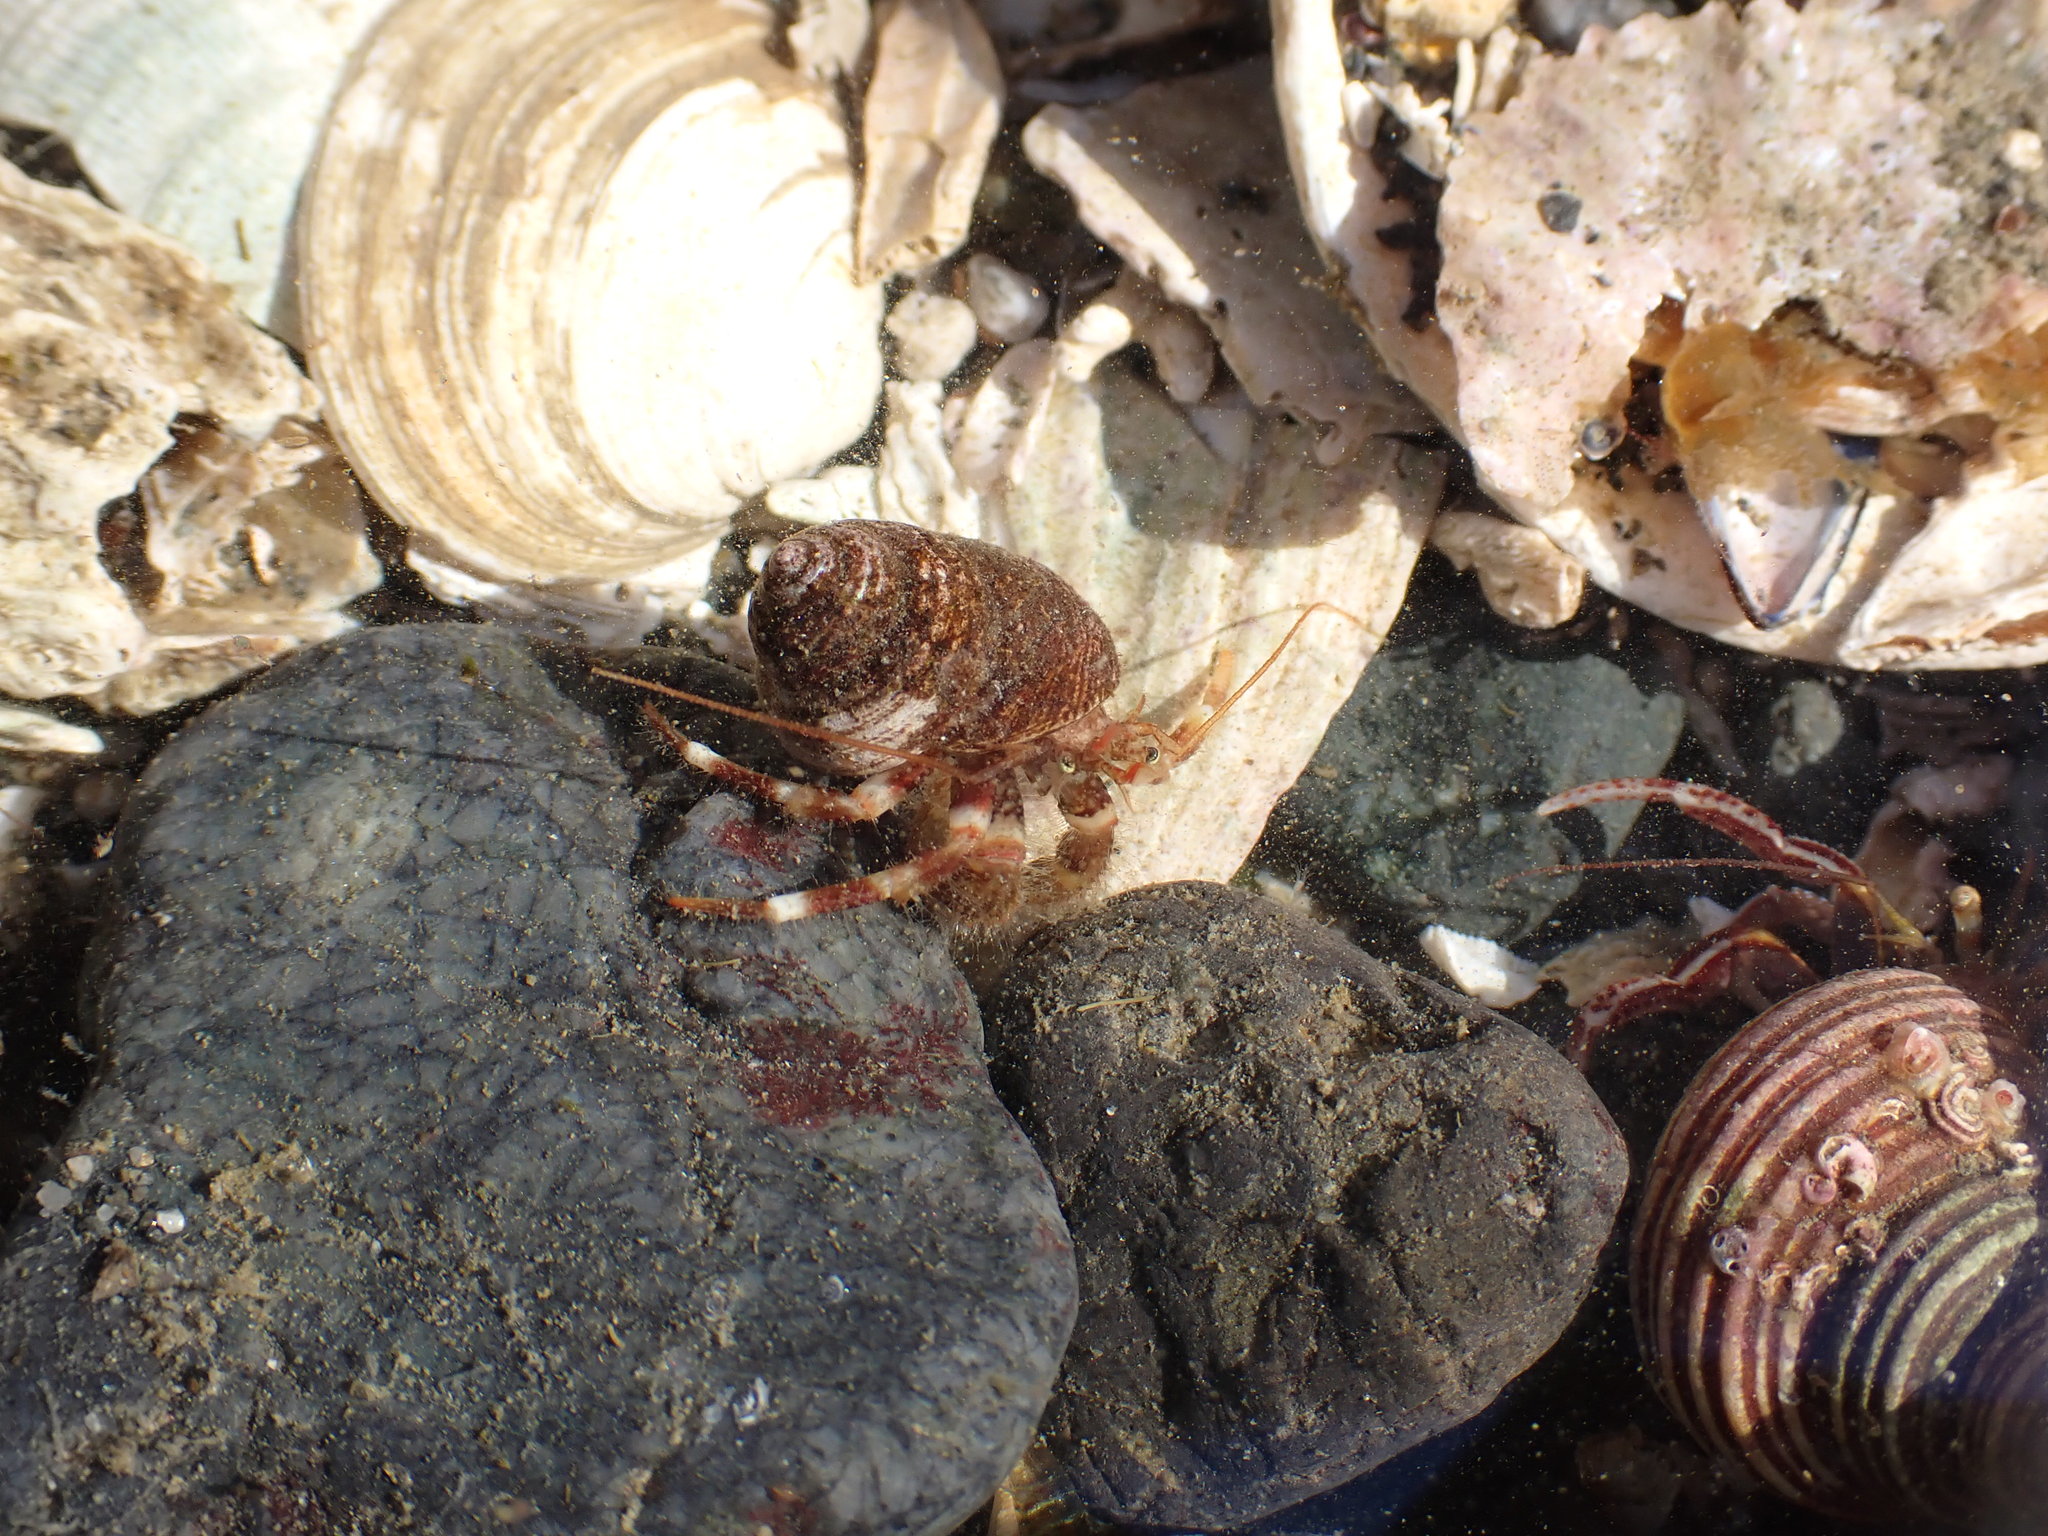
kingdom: Animalia
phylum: Arthropoda
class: Malacostraca
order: Decapoda
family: Paguridae
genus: Pagurus
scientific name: Pagurus caurinus
